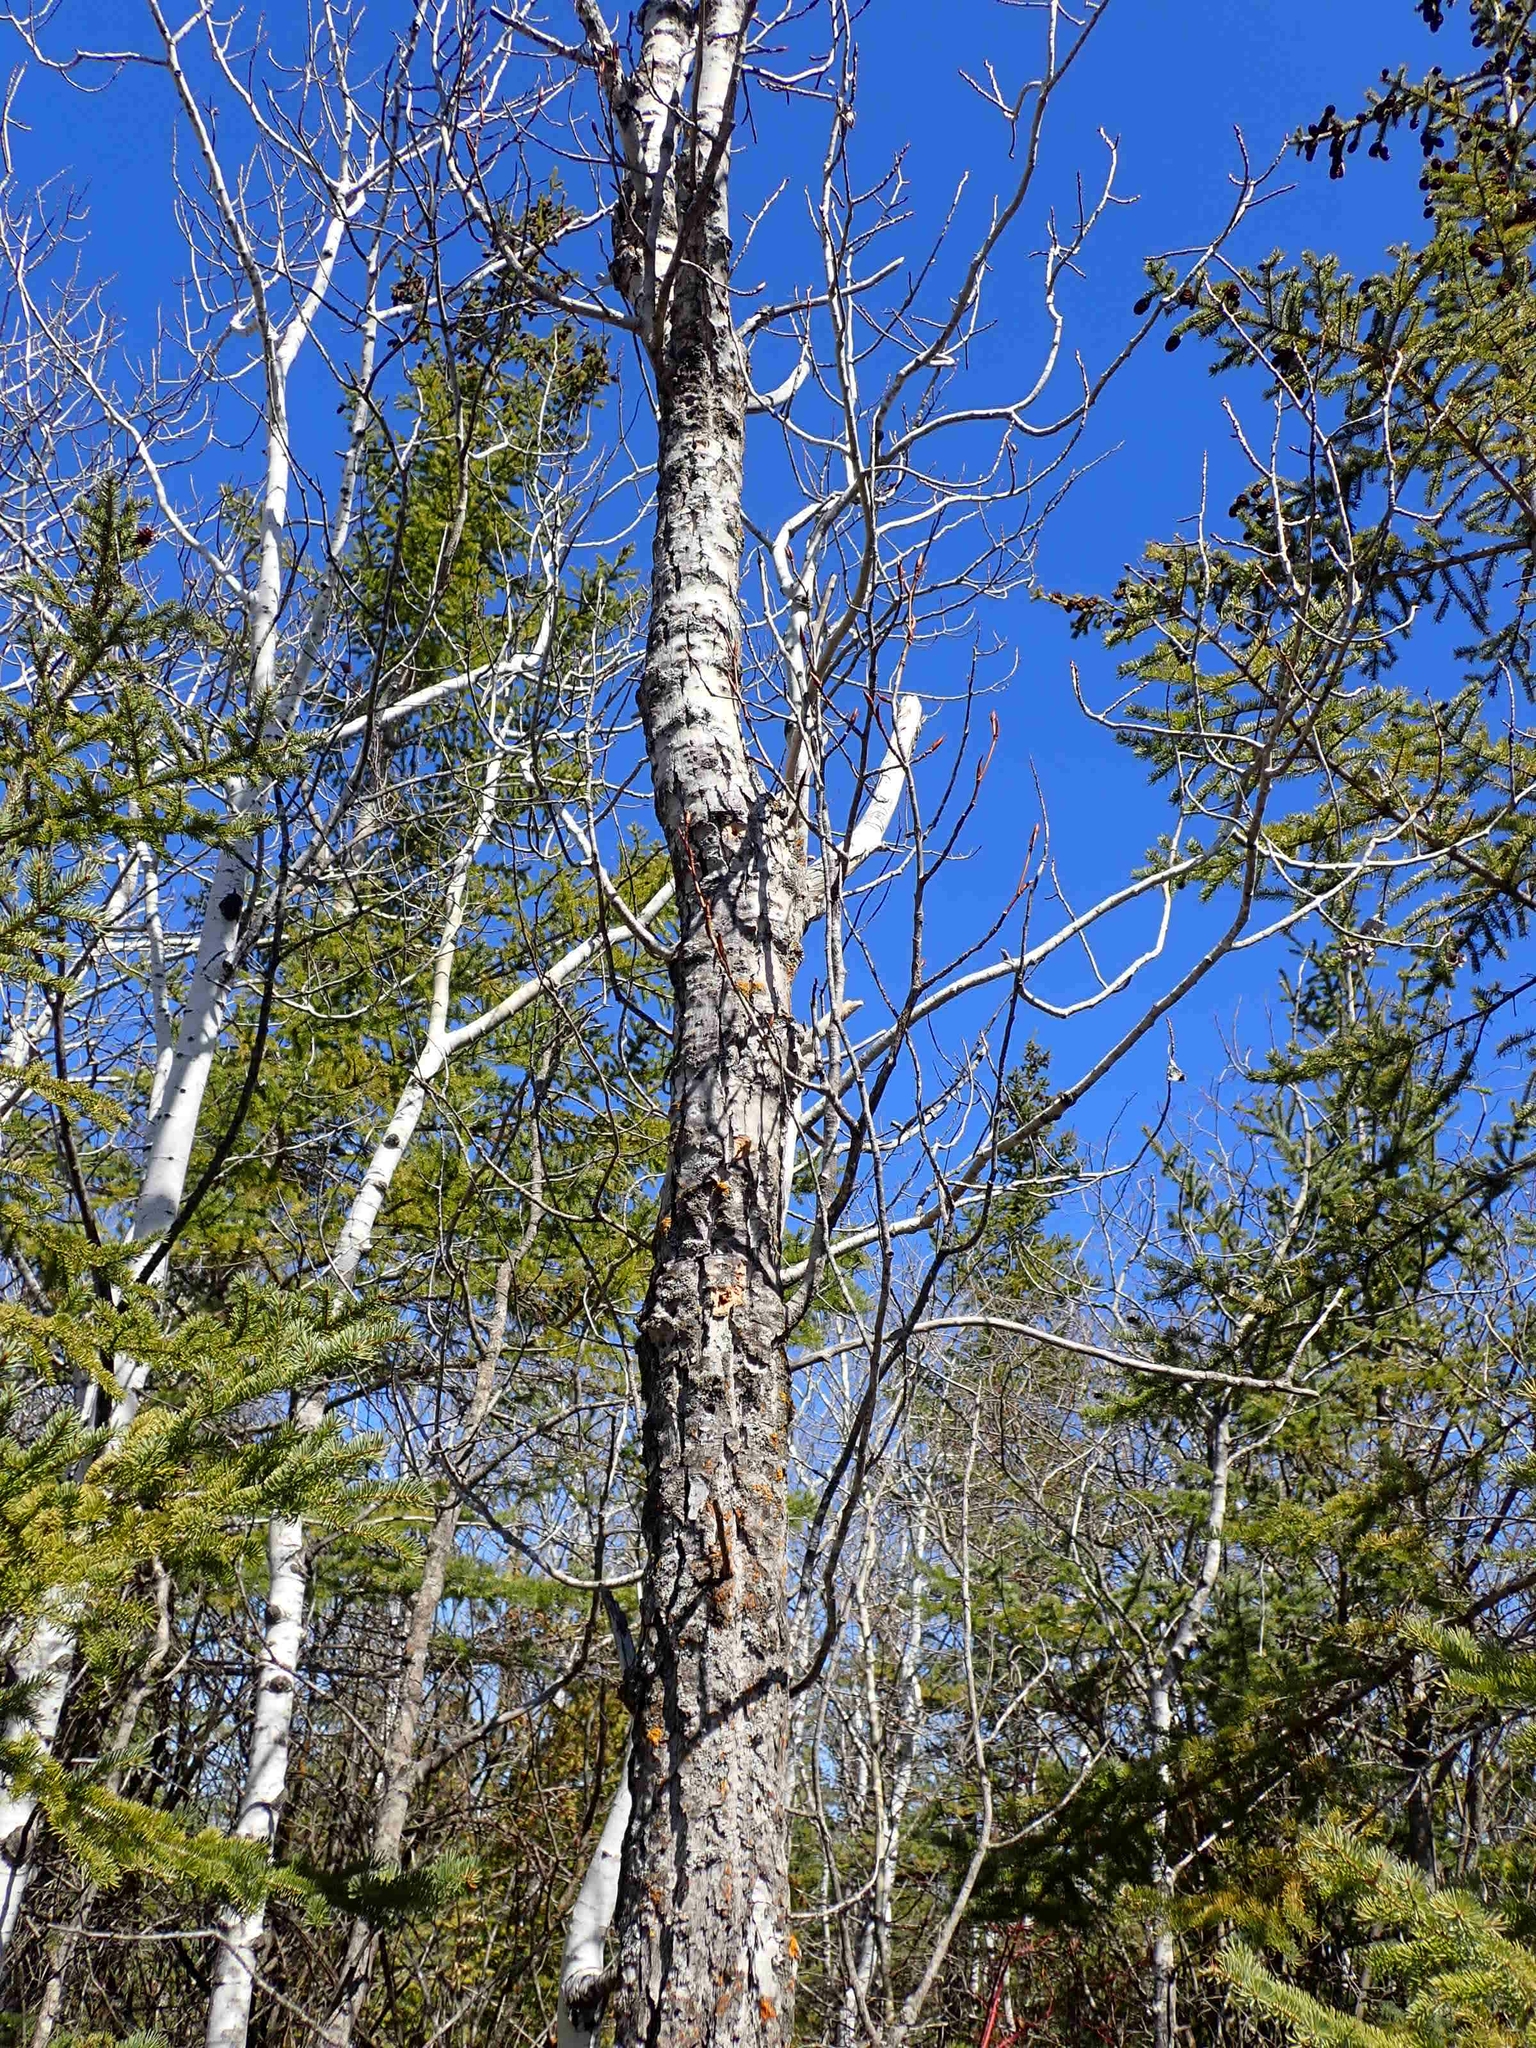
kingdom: Plantae
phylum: Tracheophyta
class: Magnoliopsida
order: Malpighiales
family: Salicaceae
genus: Populus
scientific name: Populus balsamifera
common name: Balsam poplar
